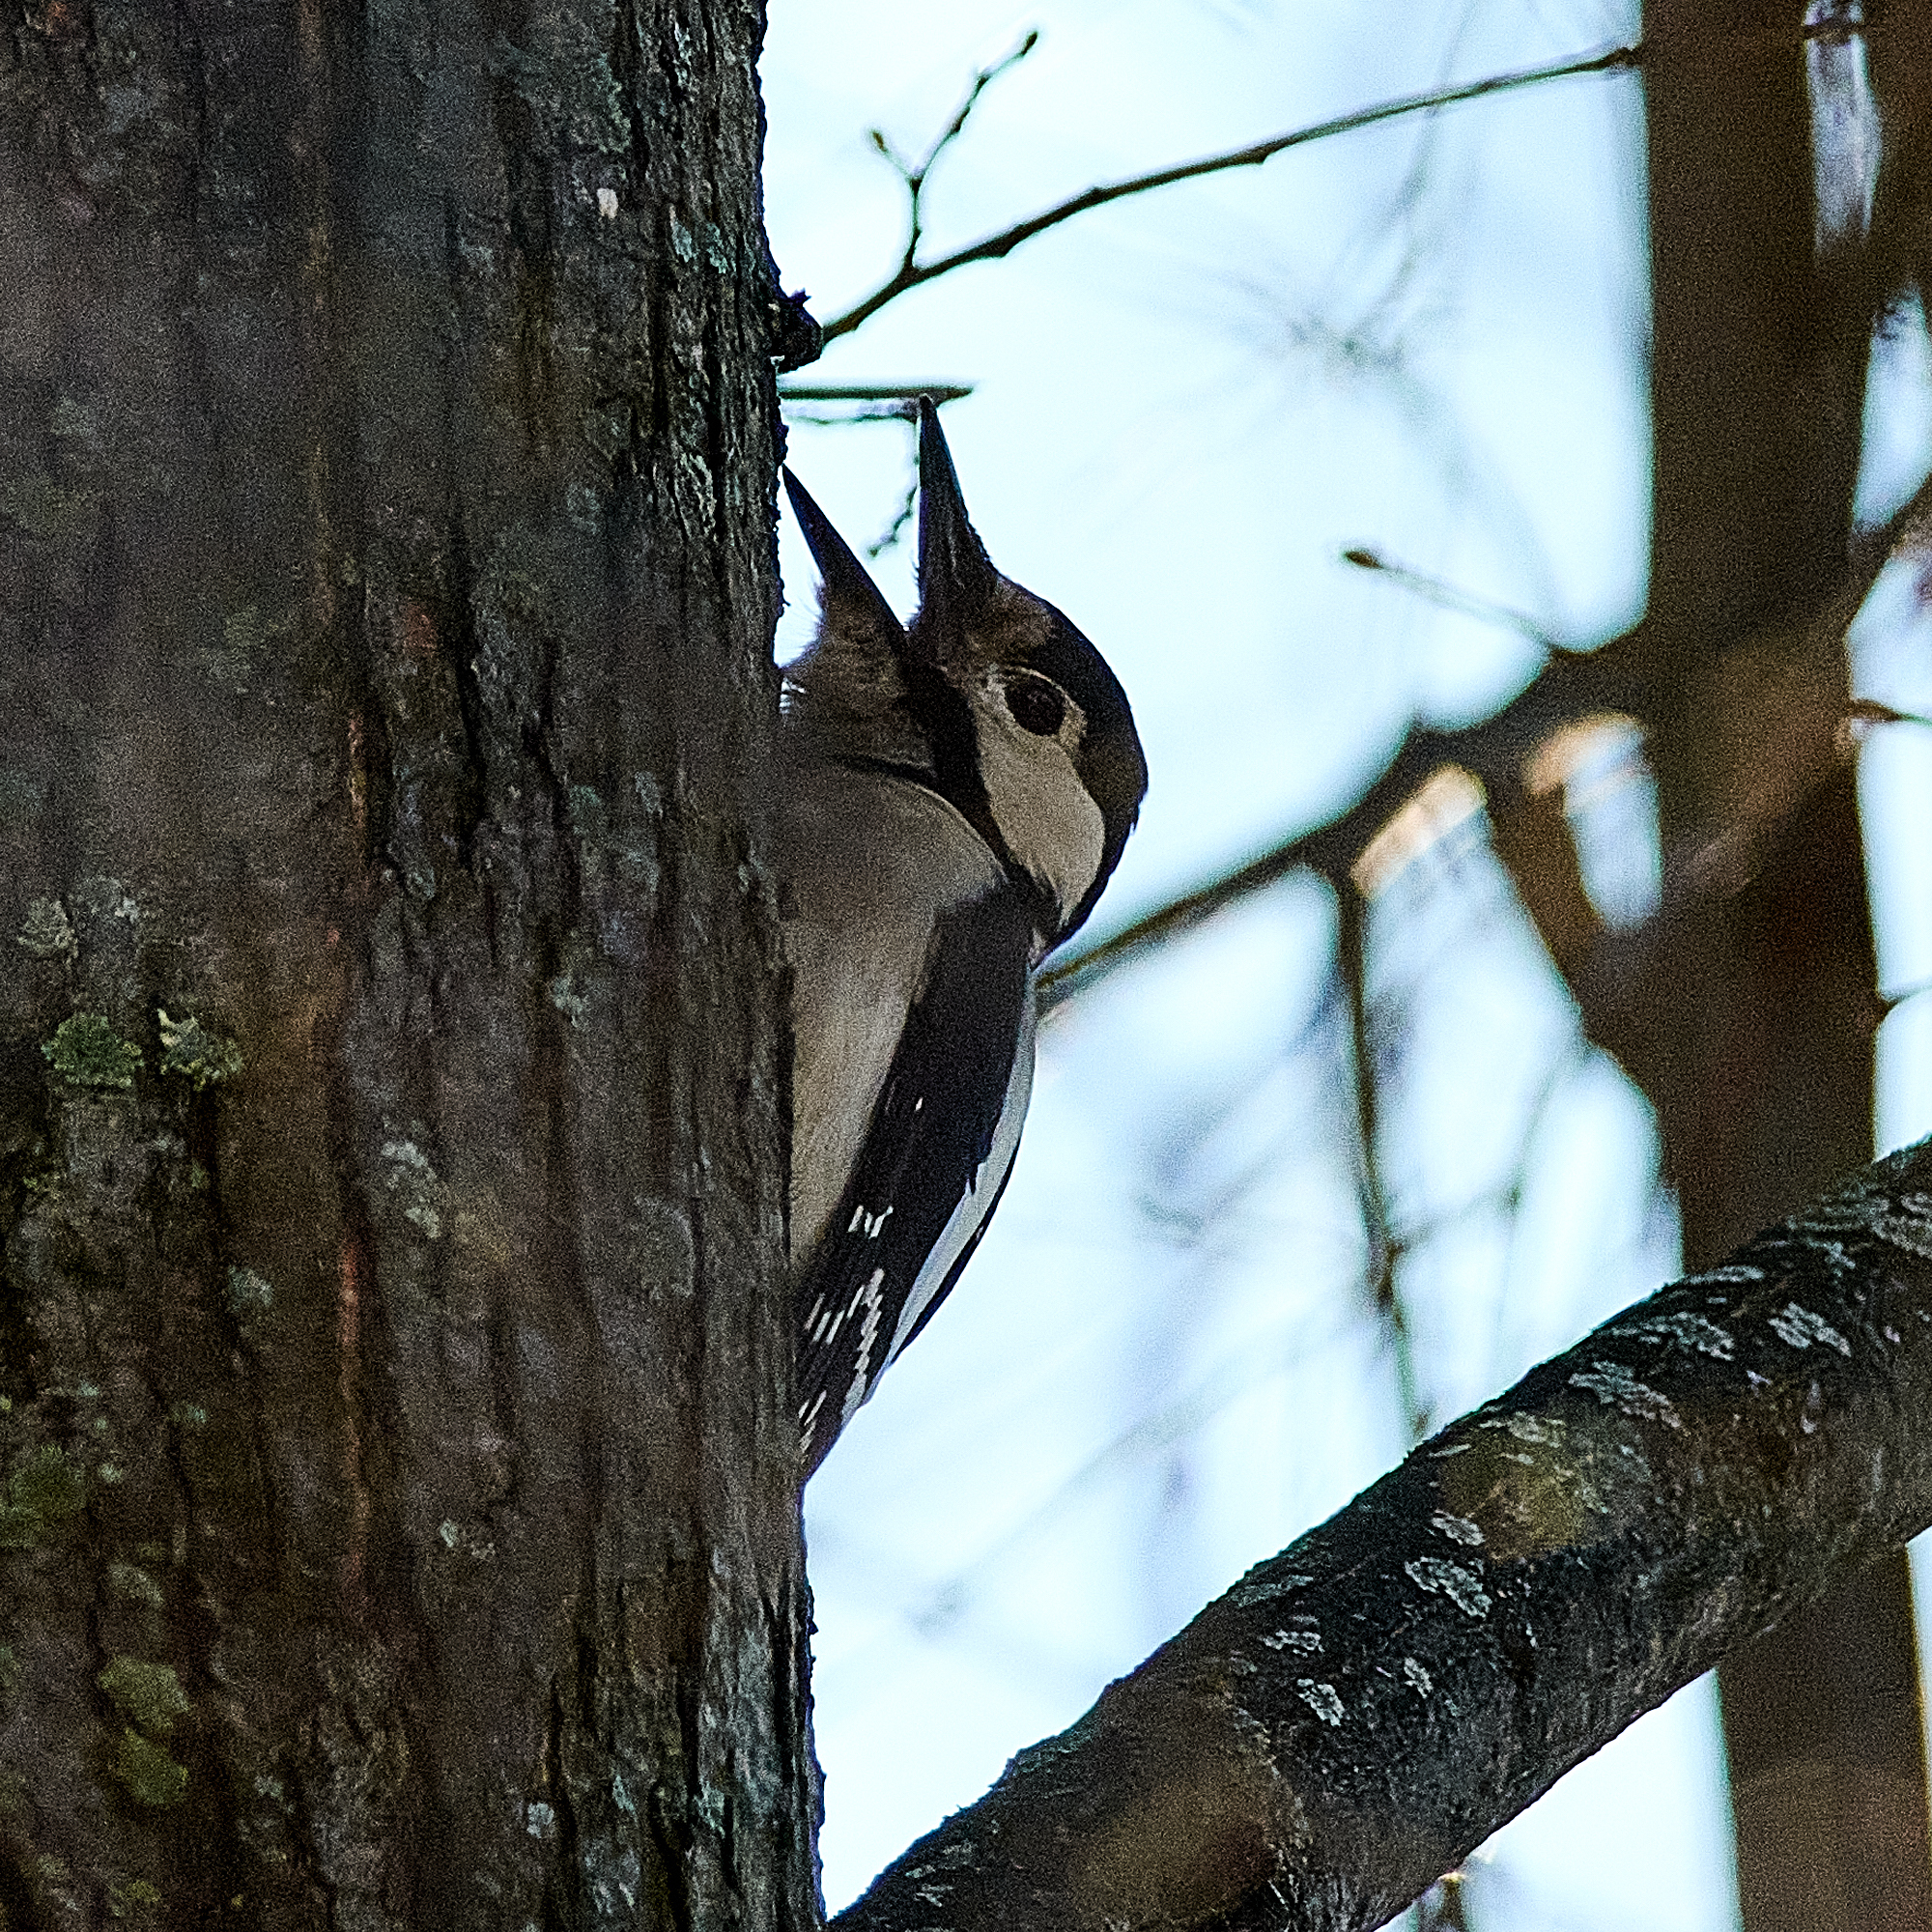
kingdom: Animalia
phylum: Chordata
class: Aves
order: Piciformes
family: Picidae
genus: Dendrocopos
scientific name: Dendrocopos major
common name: Great spotted woodpecker
